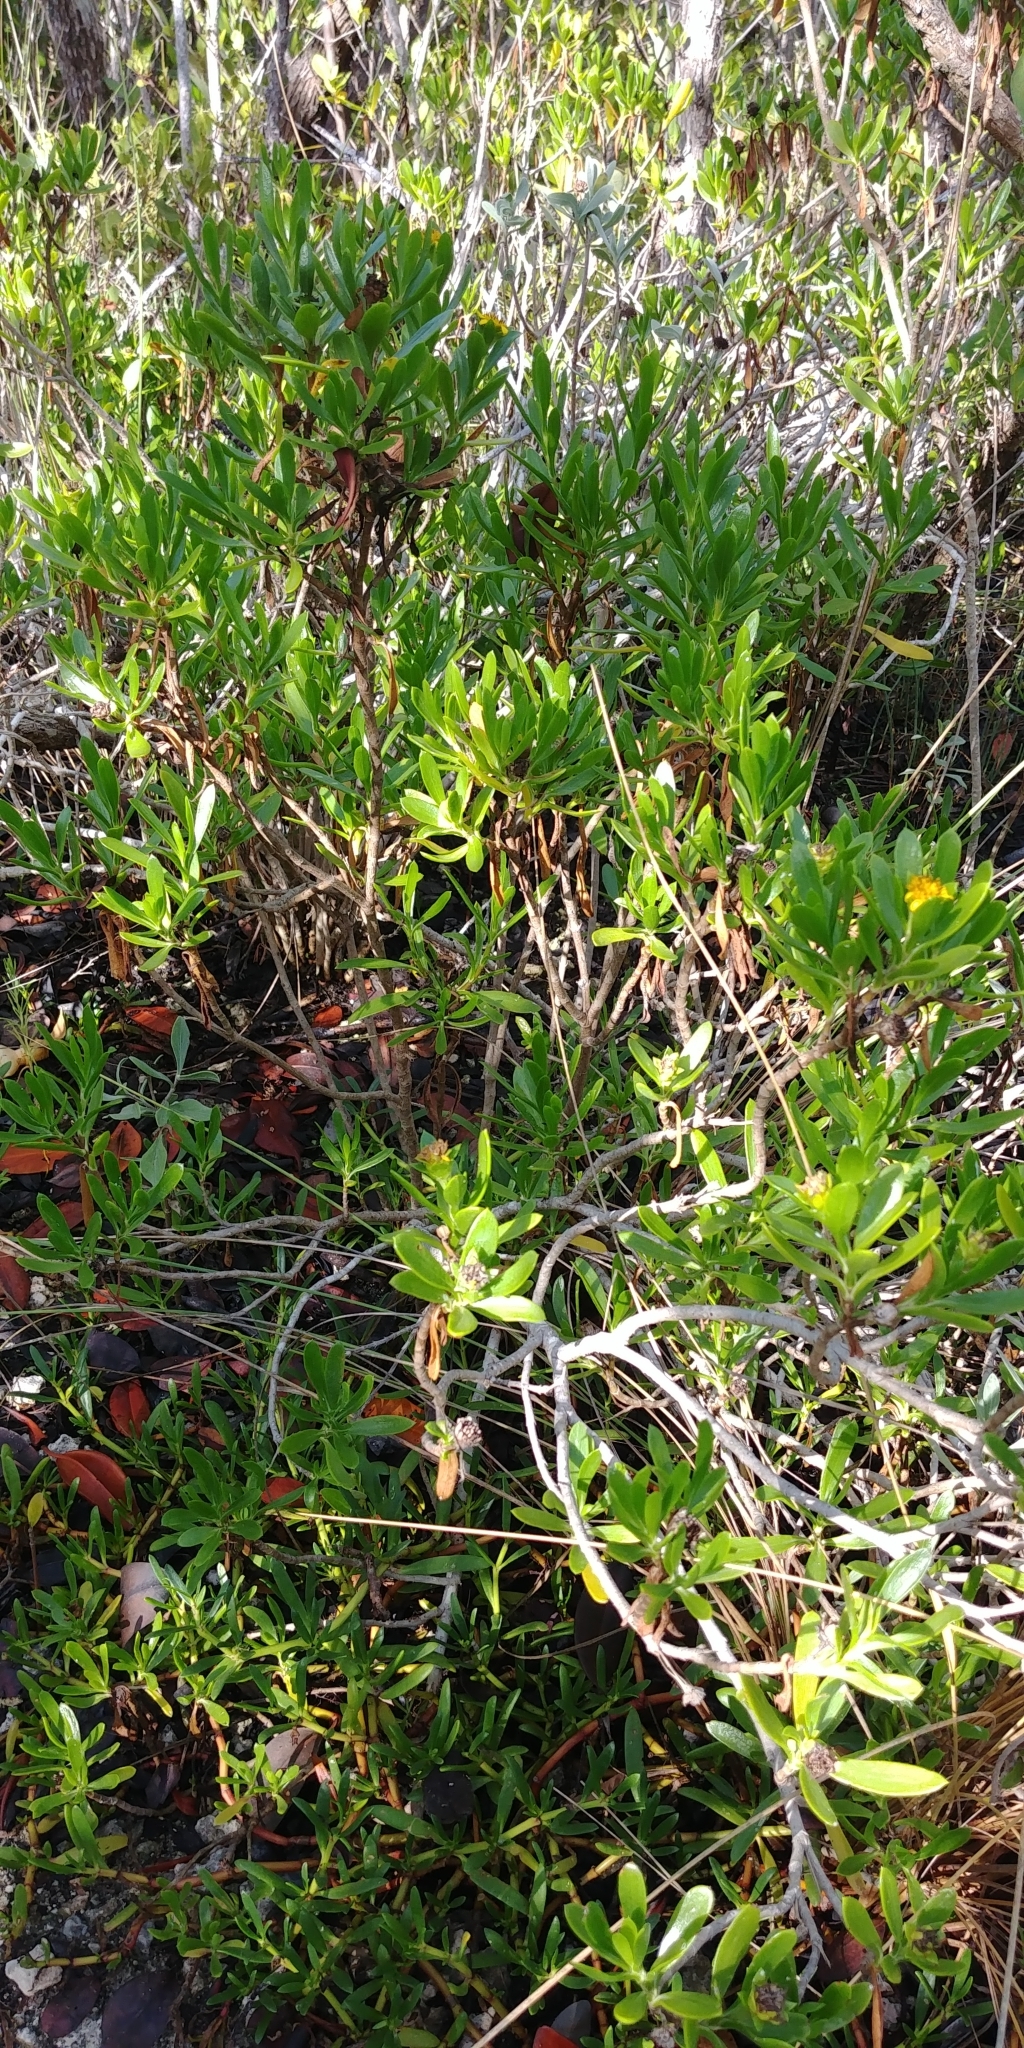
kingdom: Plantae
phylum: Tracheophyta
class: Magnoliopsida
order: Asterales
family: Asteraceae
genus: Borrichia
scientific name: Borrichia arborescens
